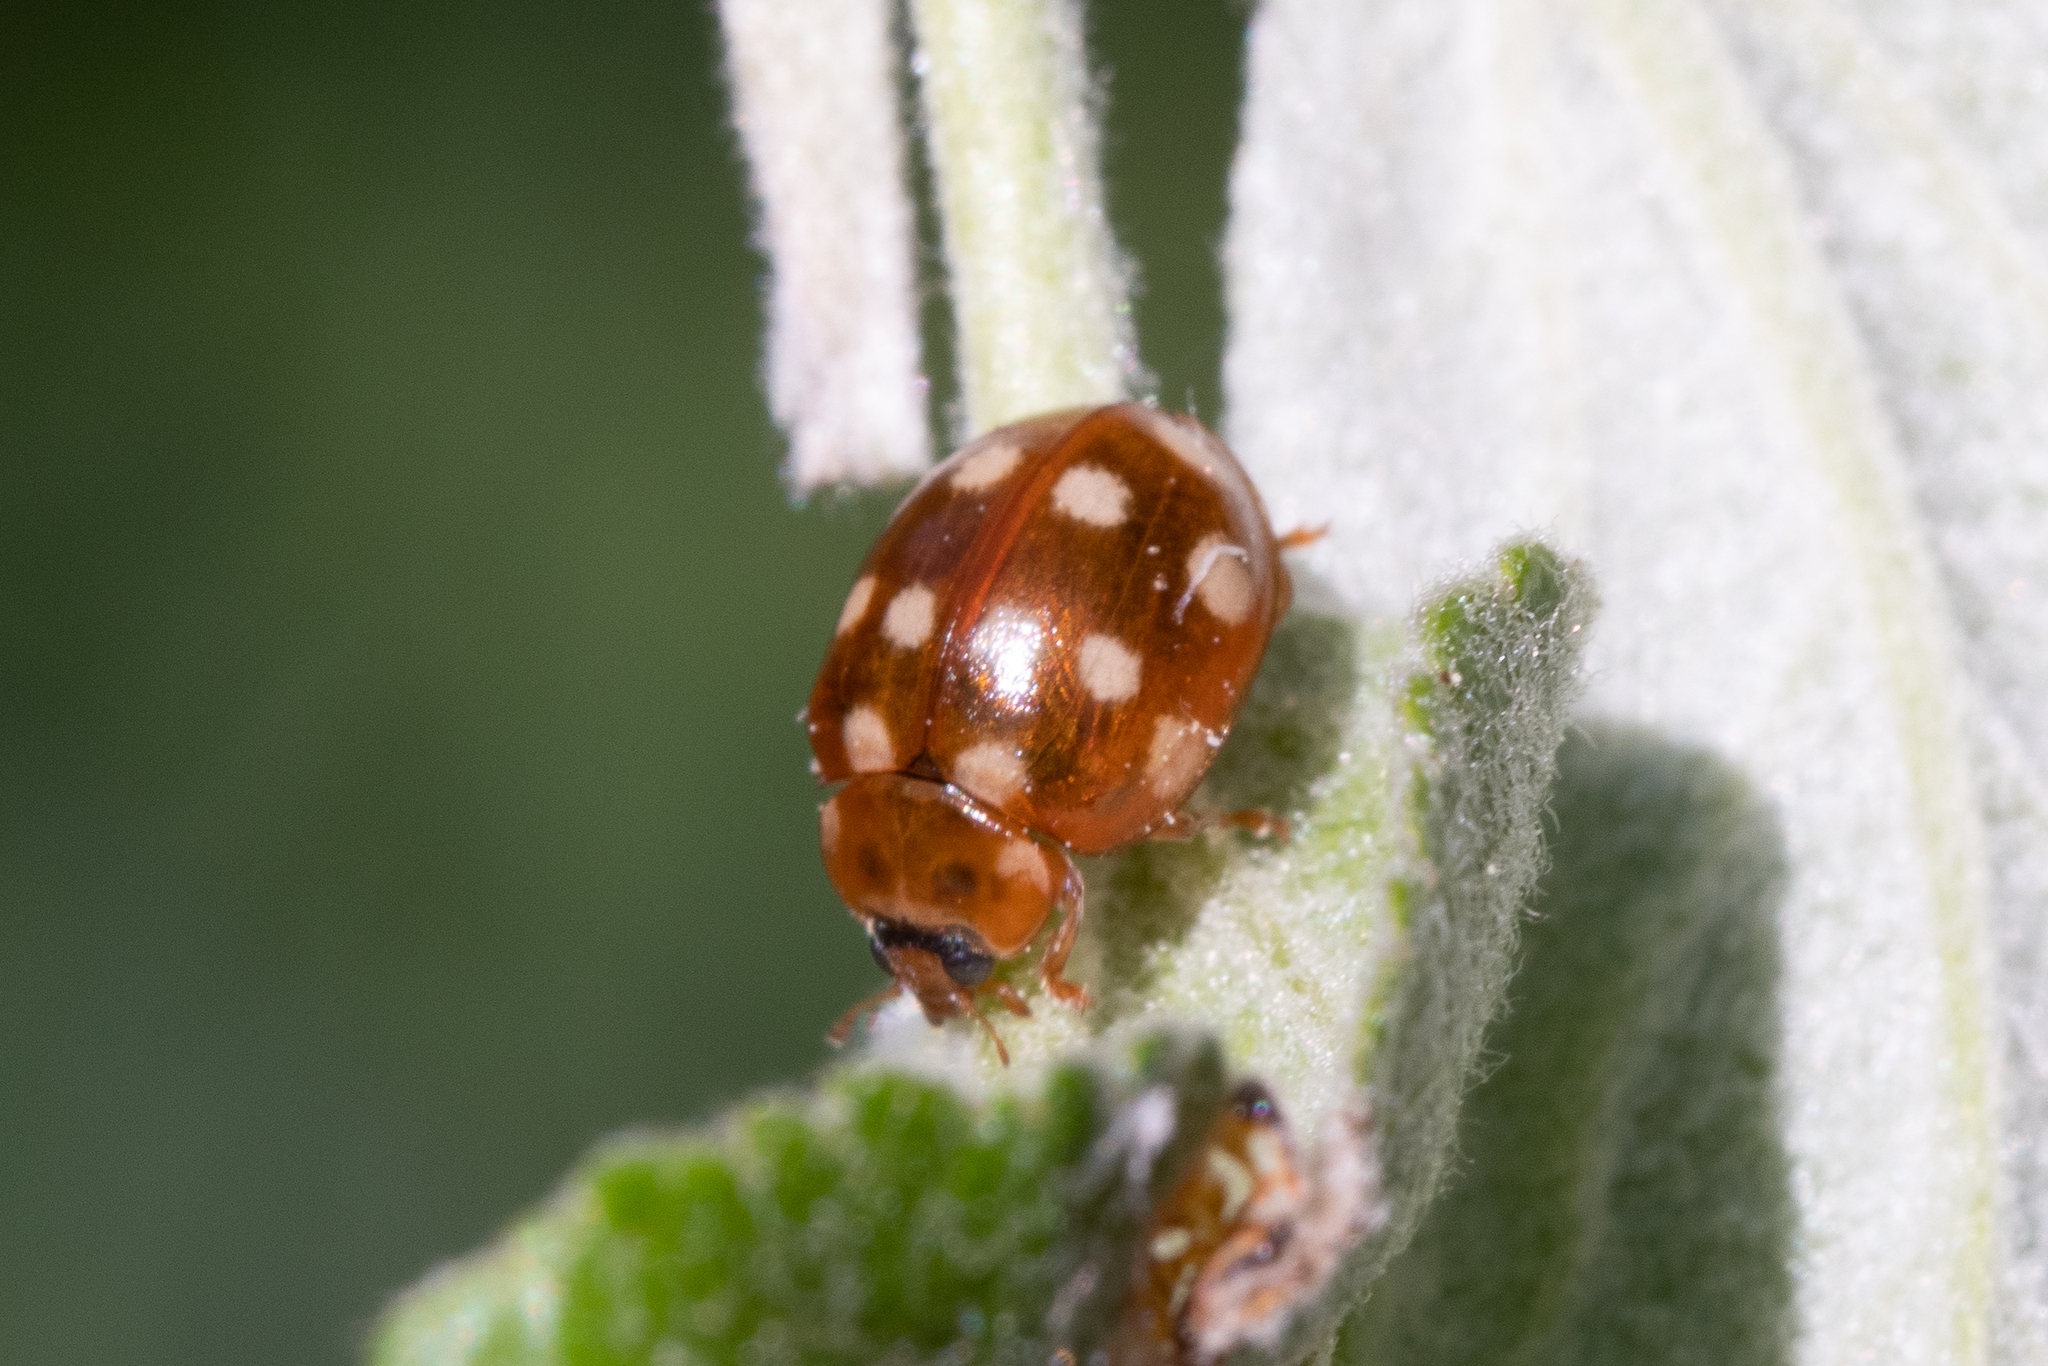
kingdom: Animalia
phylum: Arthropoda
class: Insecta
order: Coleoptera
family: Coccinellidae
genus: Calvia
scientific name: Calvia quatuordecimguttata
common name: Cream-spot ladybird
